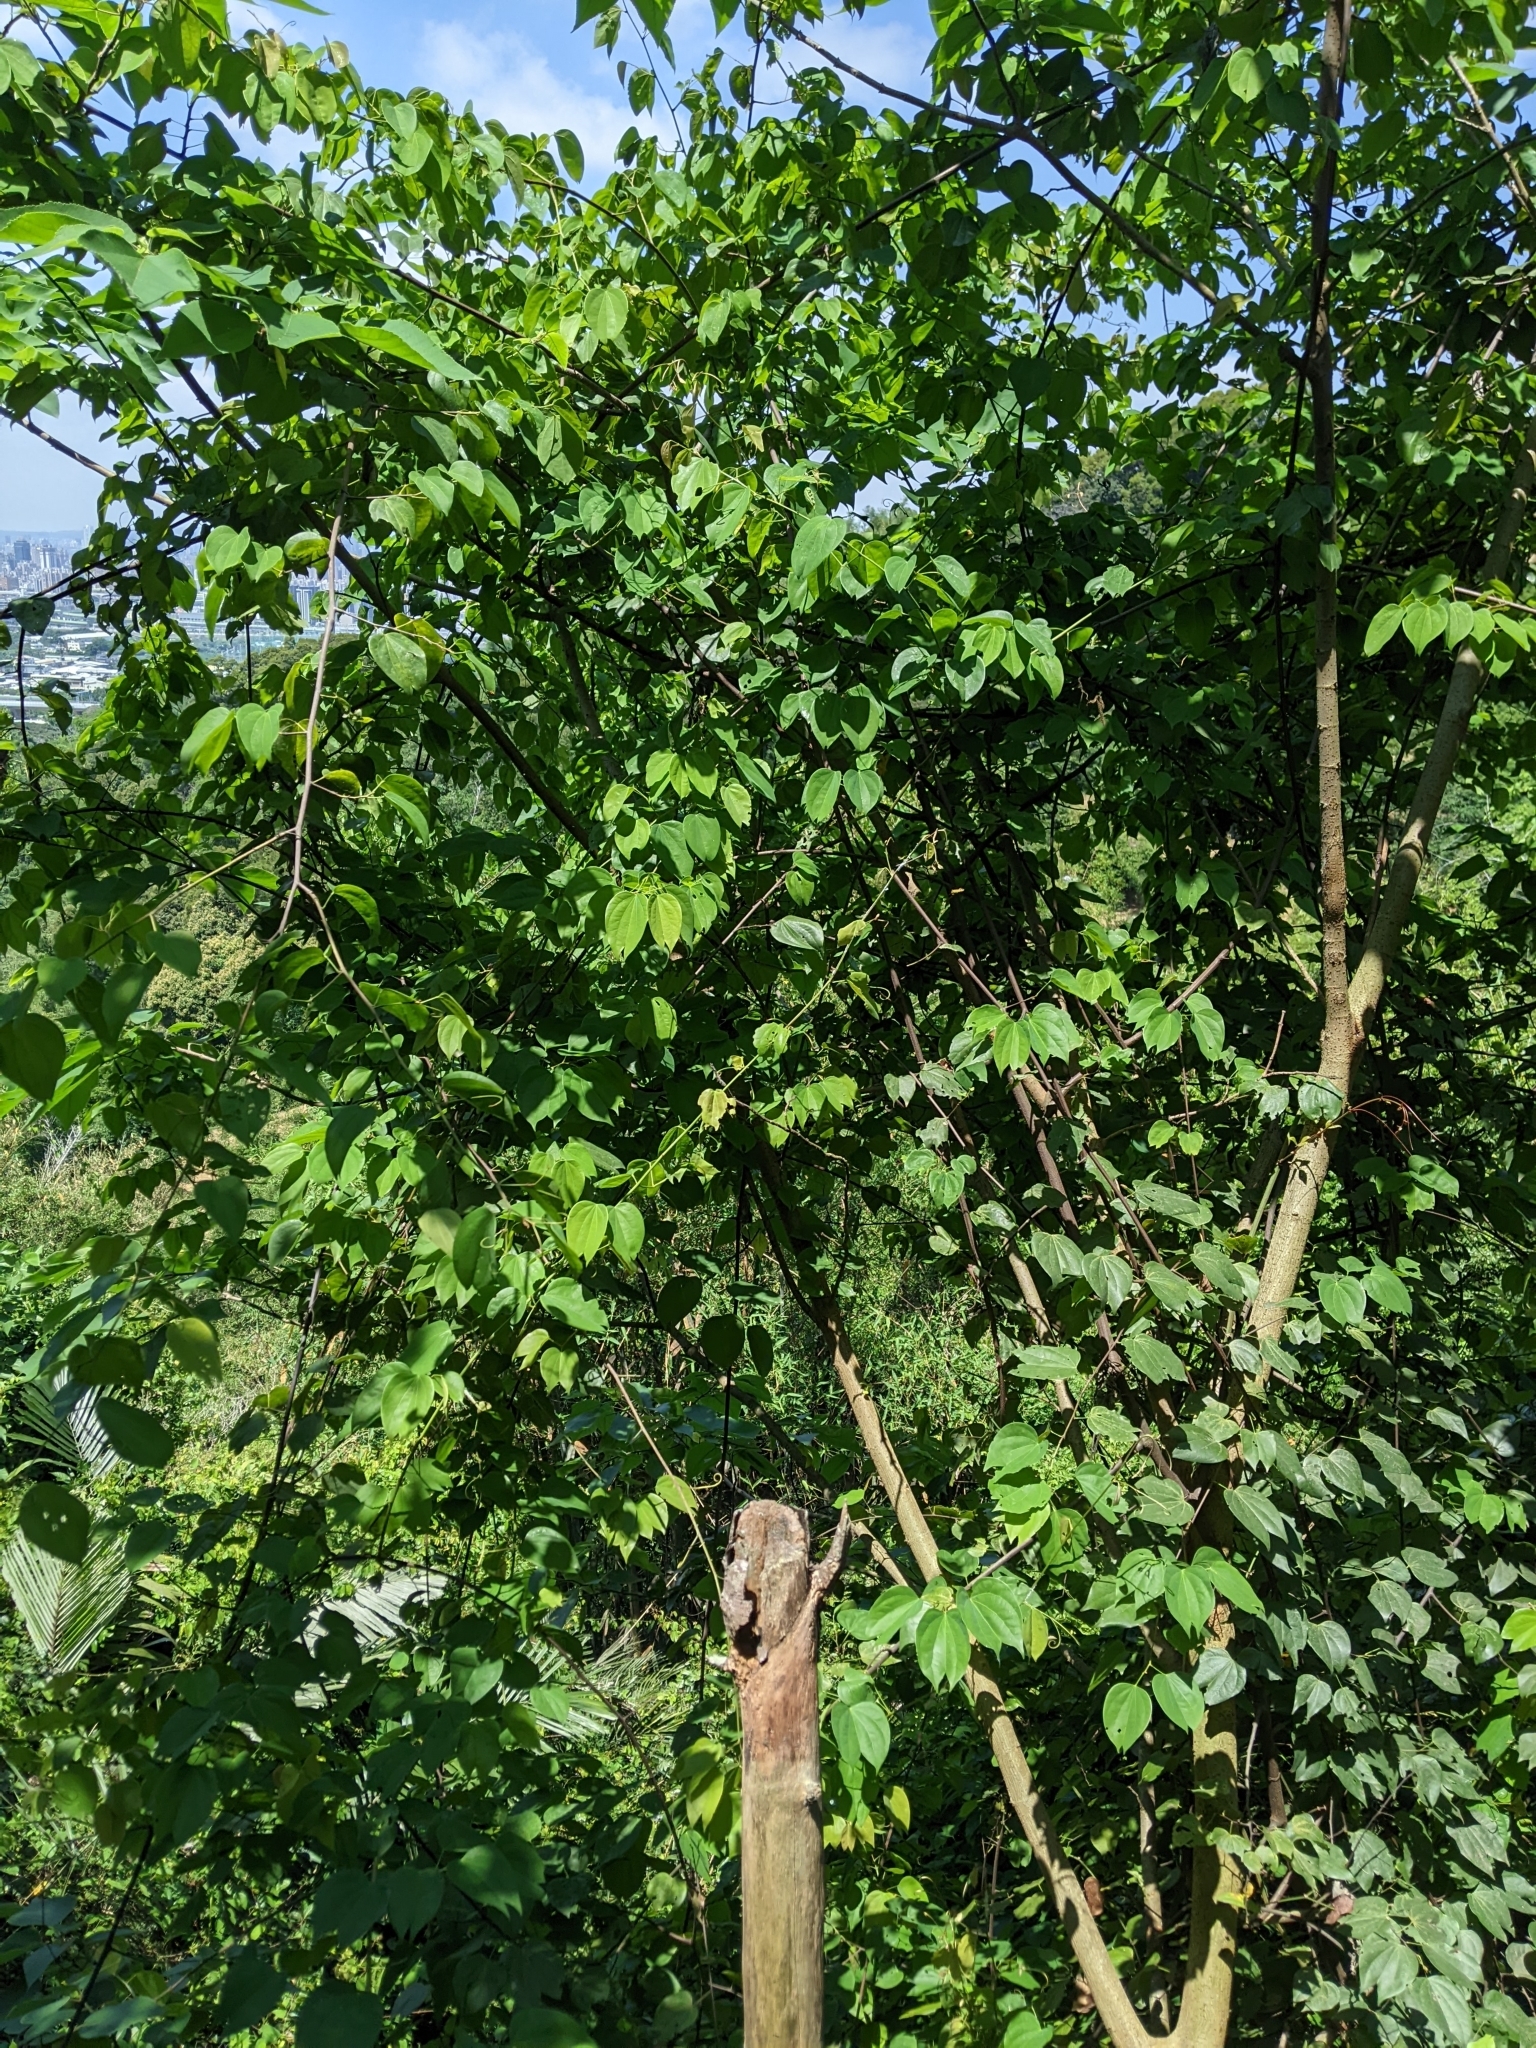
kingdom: Plantae
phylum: Tracheophyta
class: Magnoliopsida
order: Fabales
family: Fabaceae
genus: Phanera
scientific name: Phanera championii
